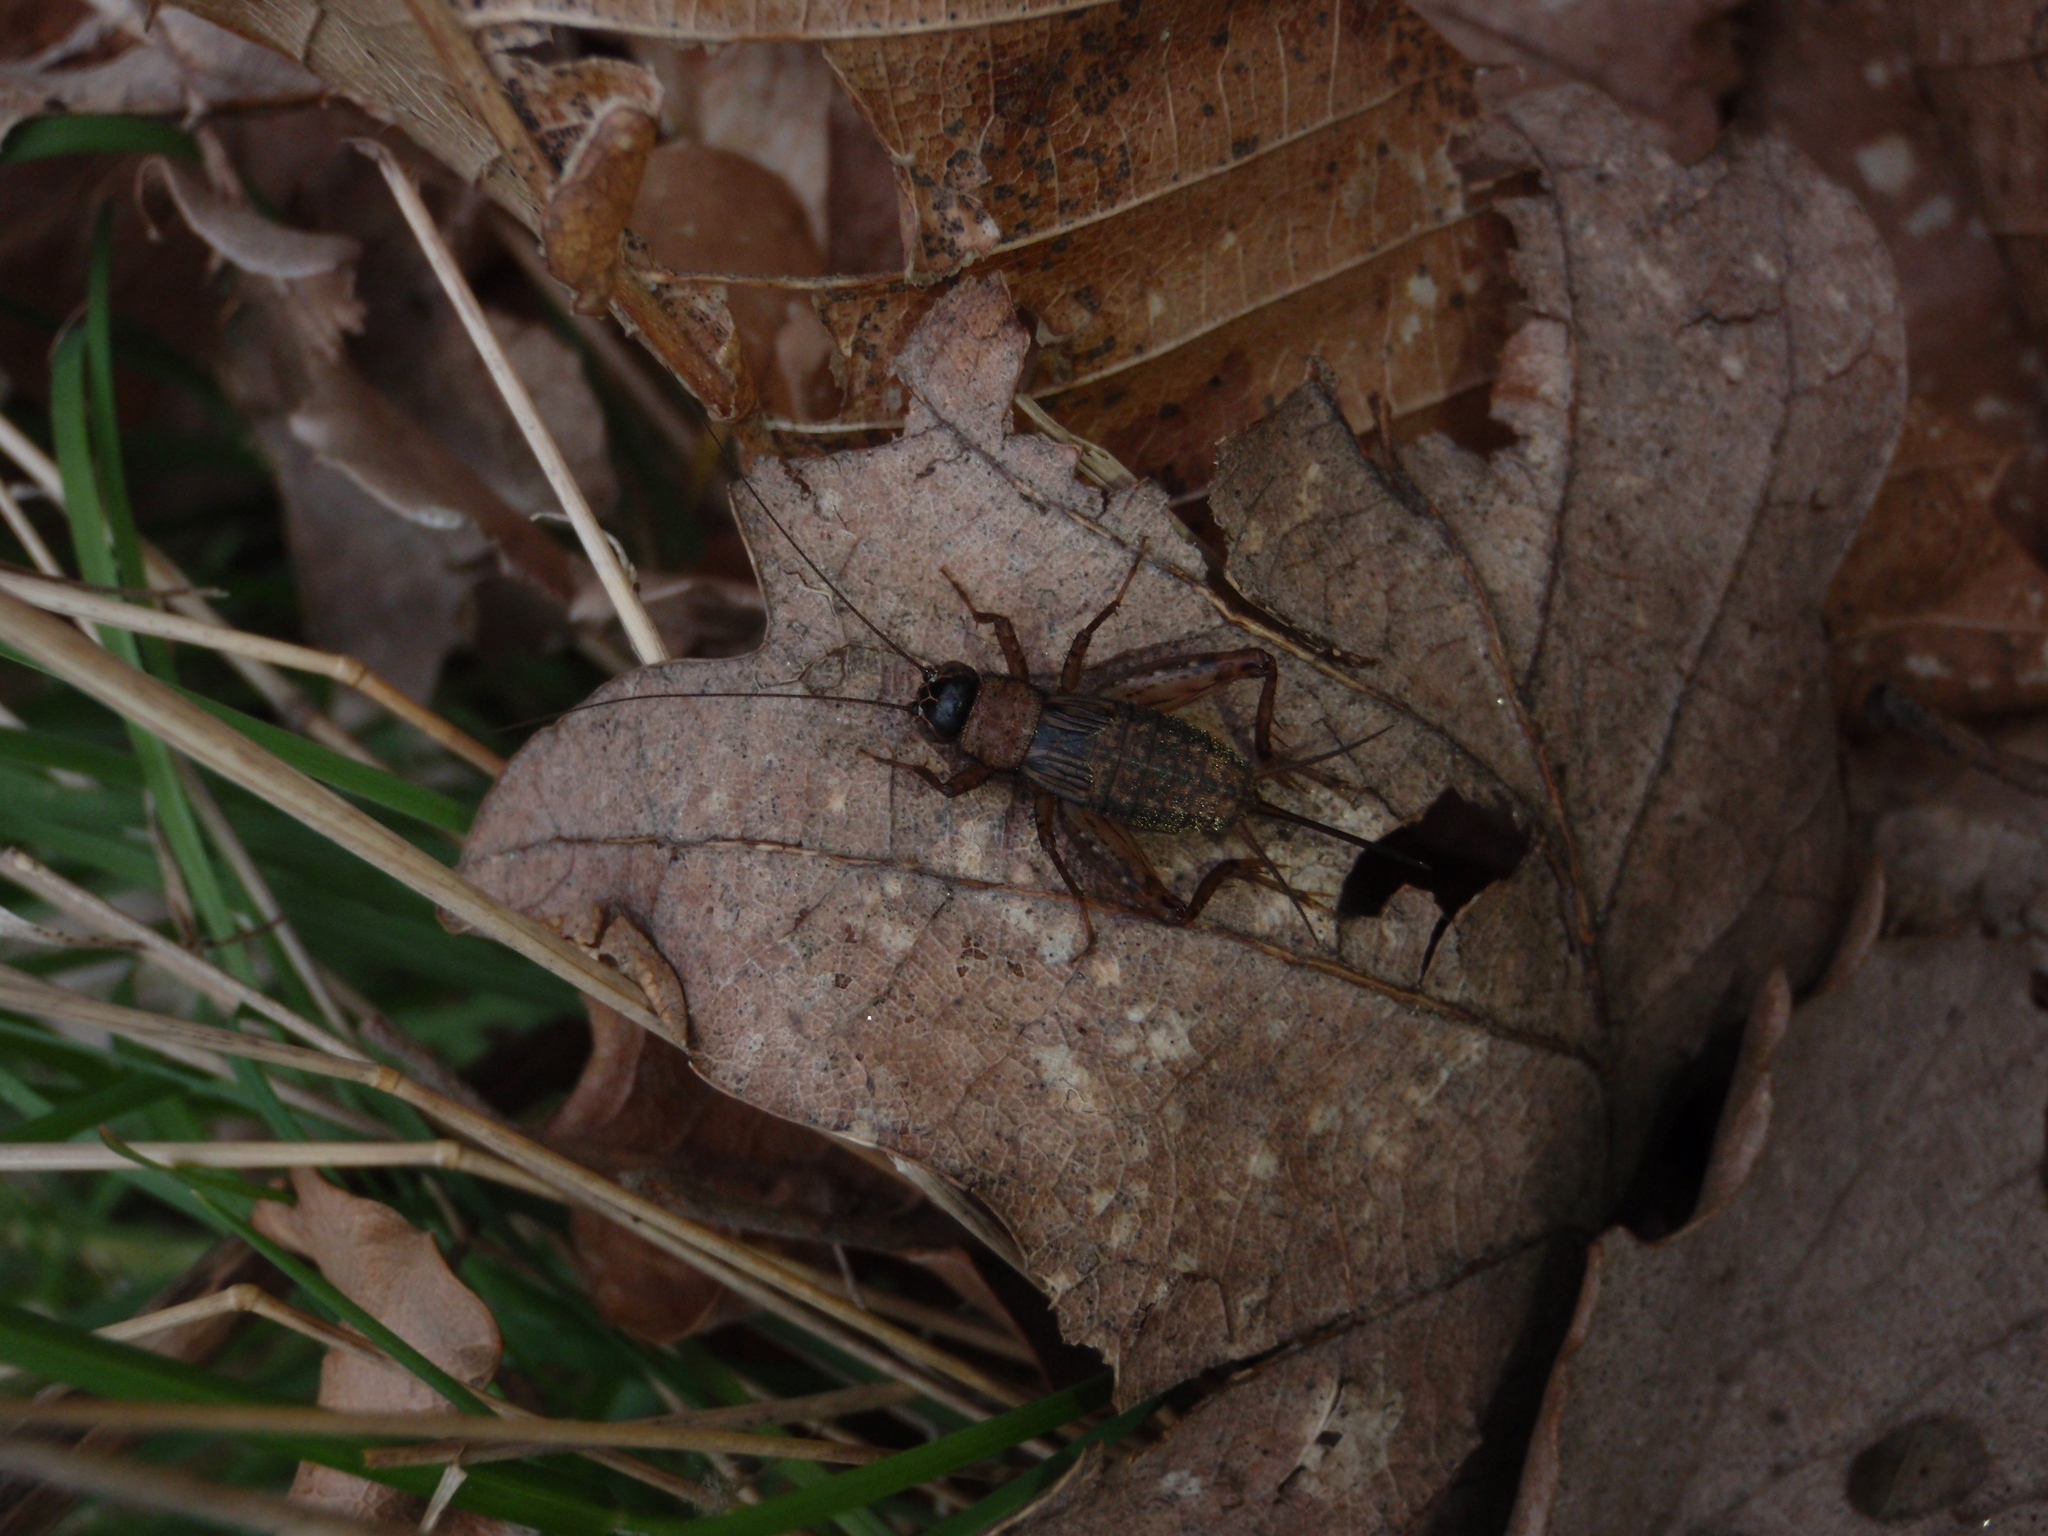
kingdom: Animalia
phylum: Arthropoda
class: Insecta
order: Orthoptera
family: Trigonidiidae
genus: Nemobius
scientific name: Nemobius sylvestris
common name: Wood-cricket
